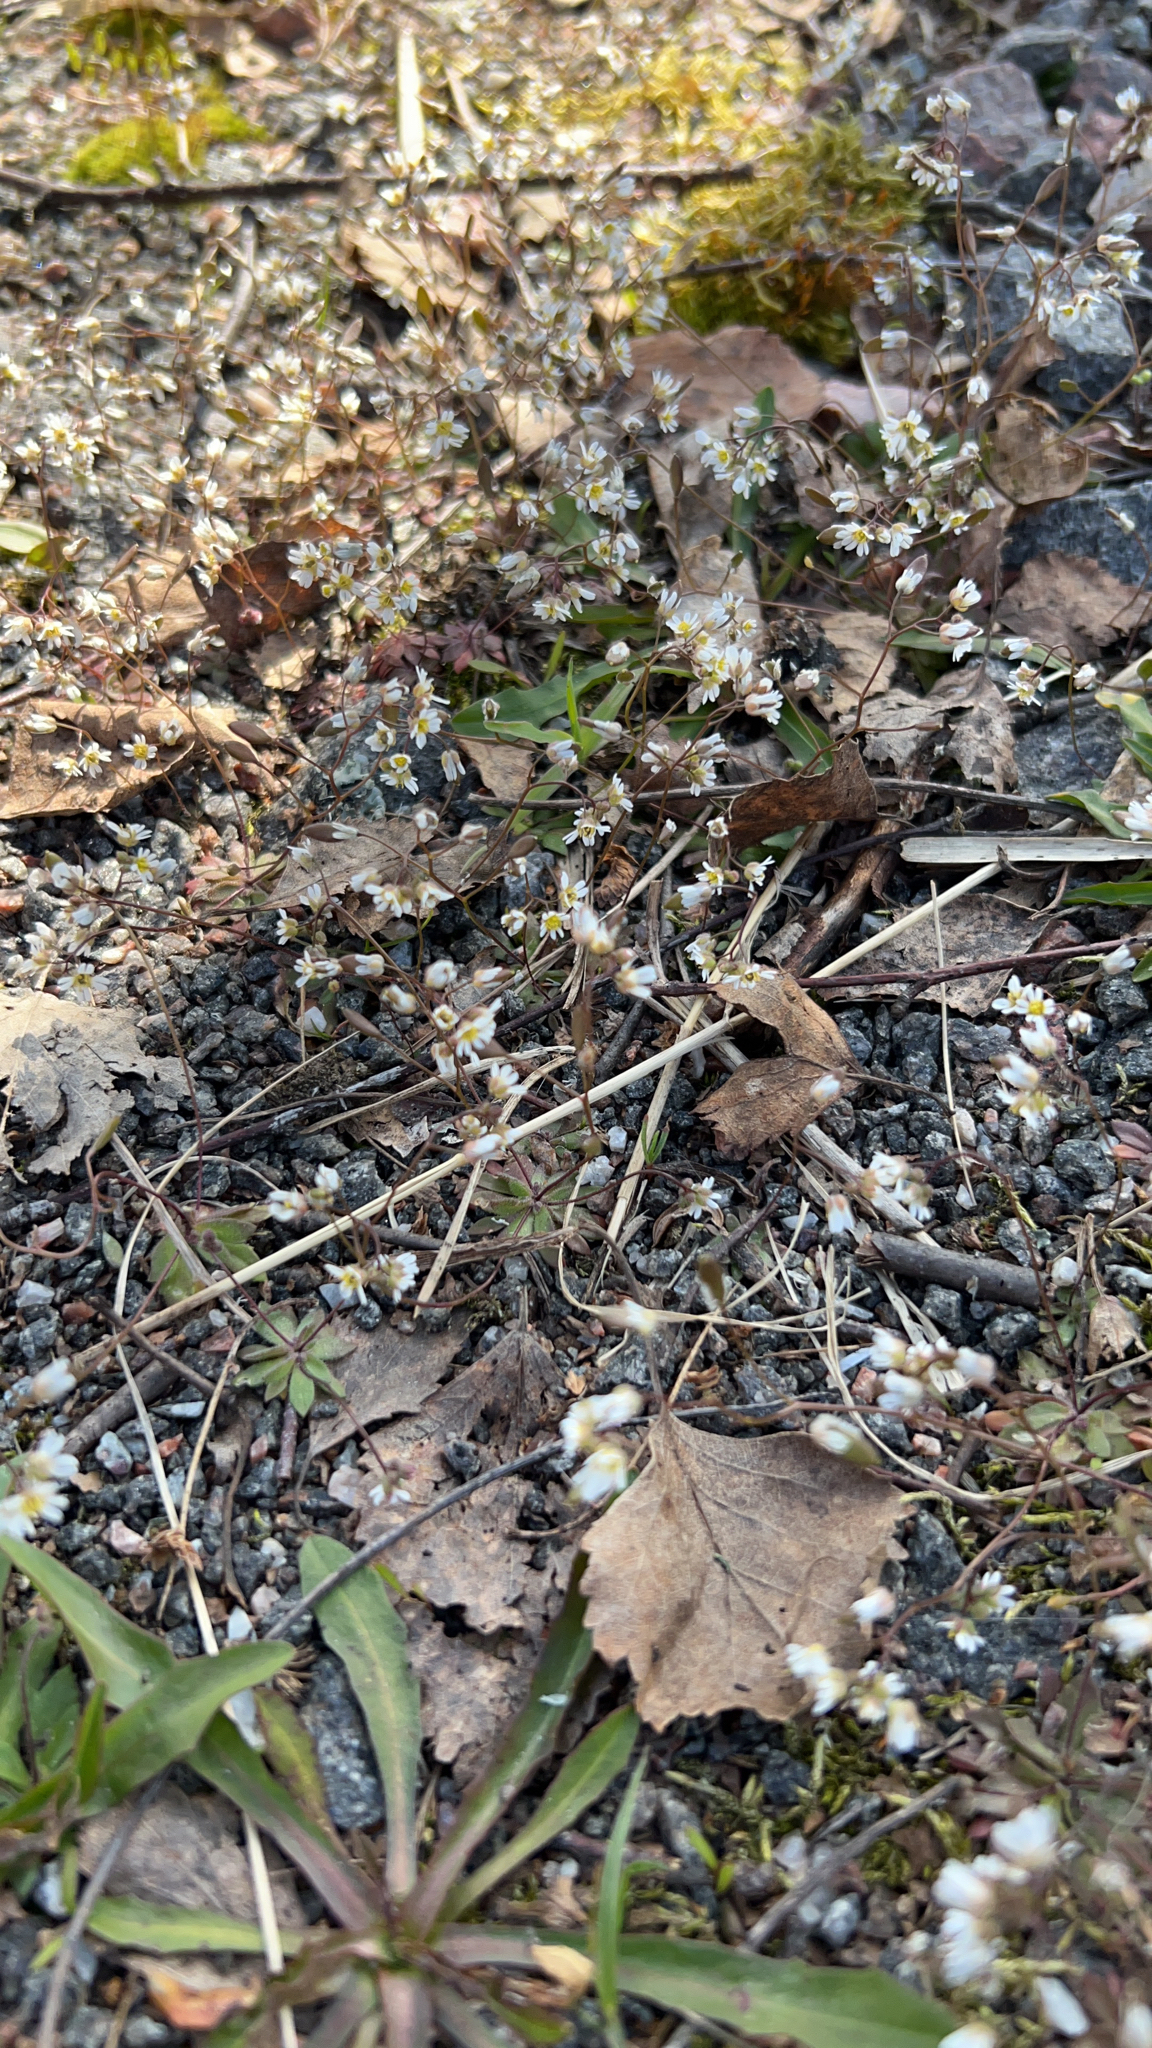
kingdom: Plantae
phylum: Tracheophyta
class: Magnoliopsida
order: Brassicales
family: Brassicaceae
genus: Draba
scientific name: Draba verna
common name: Spring draba
